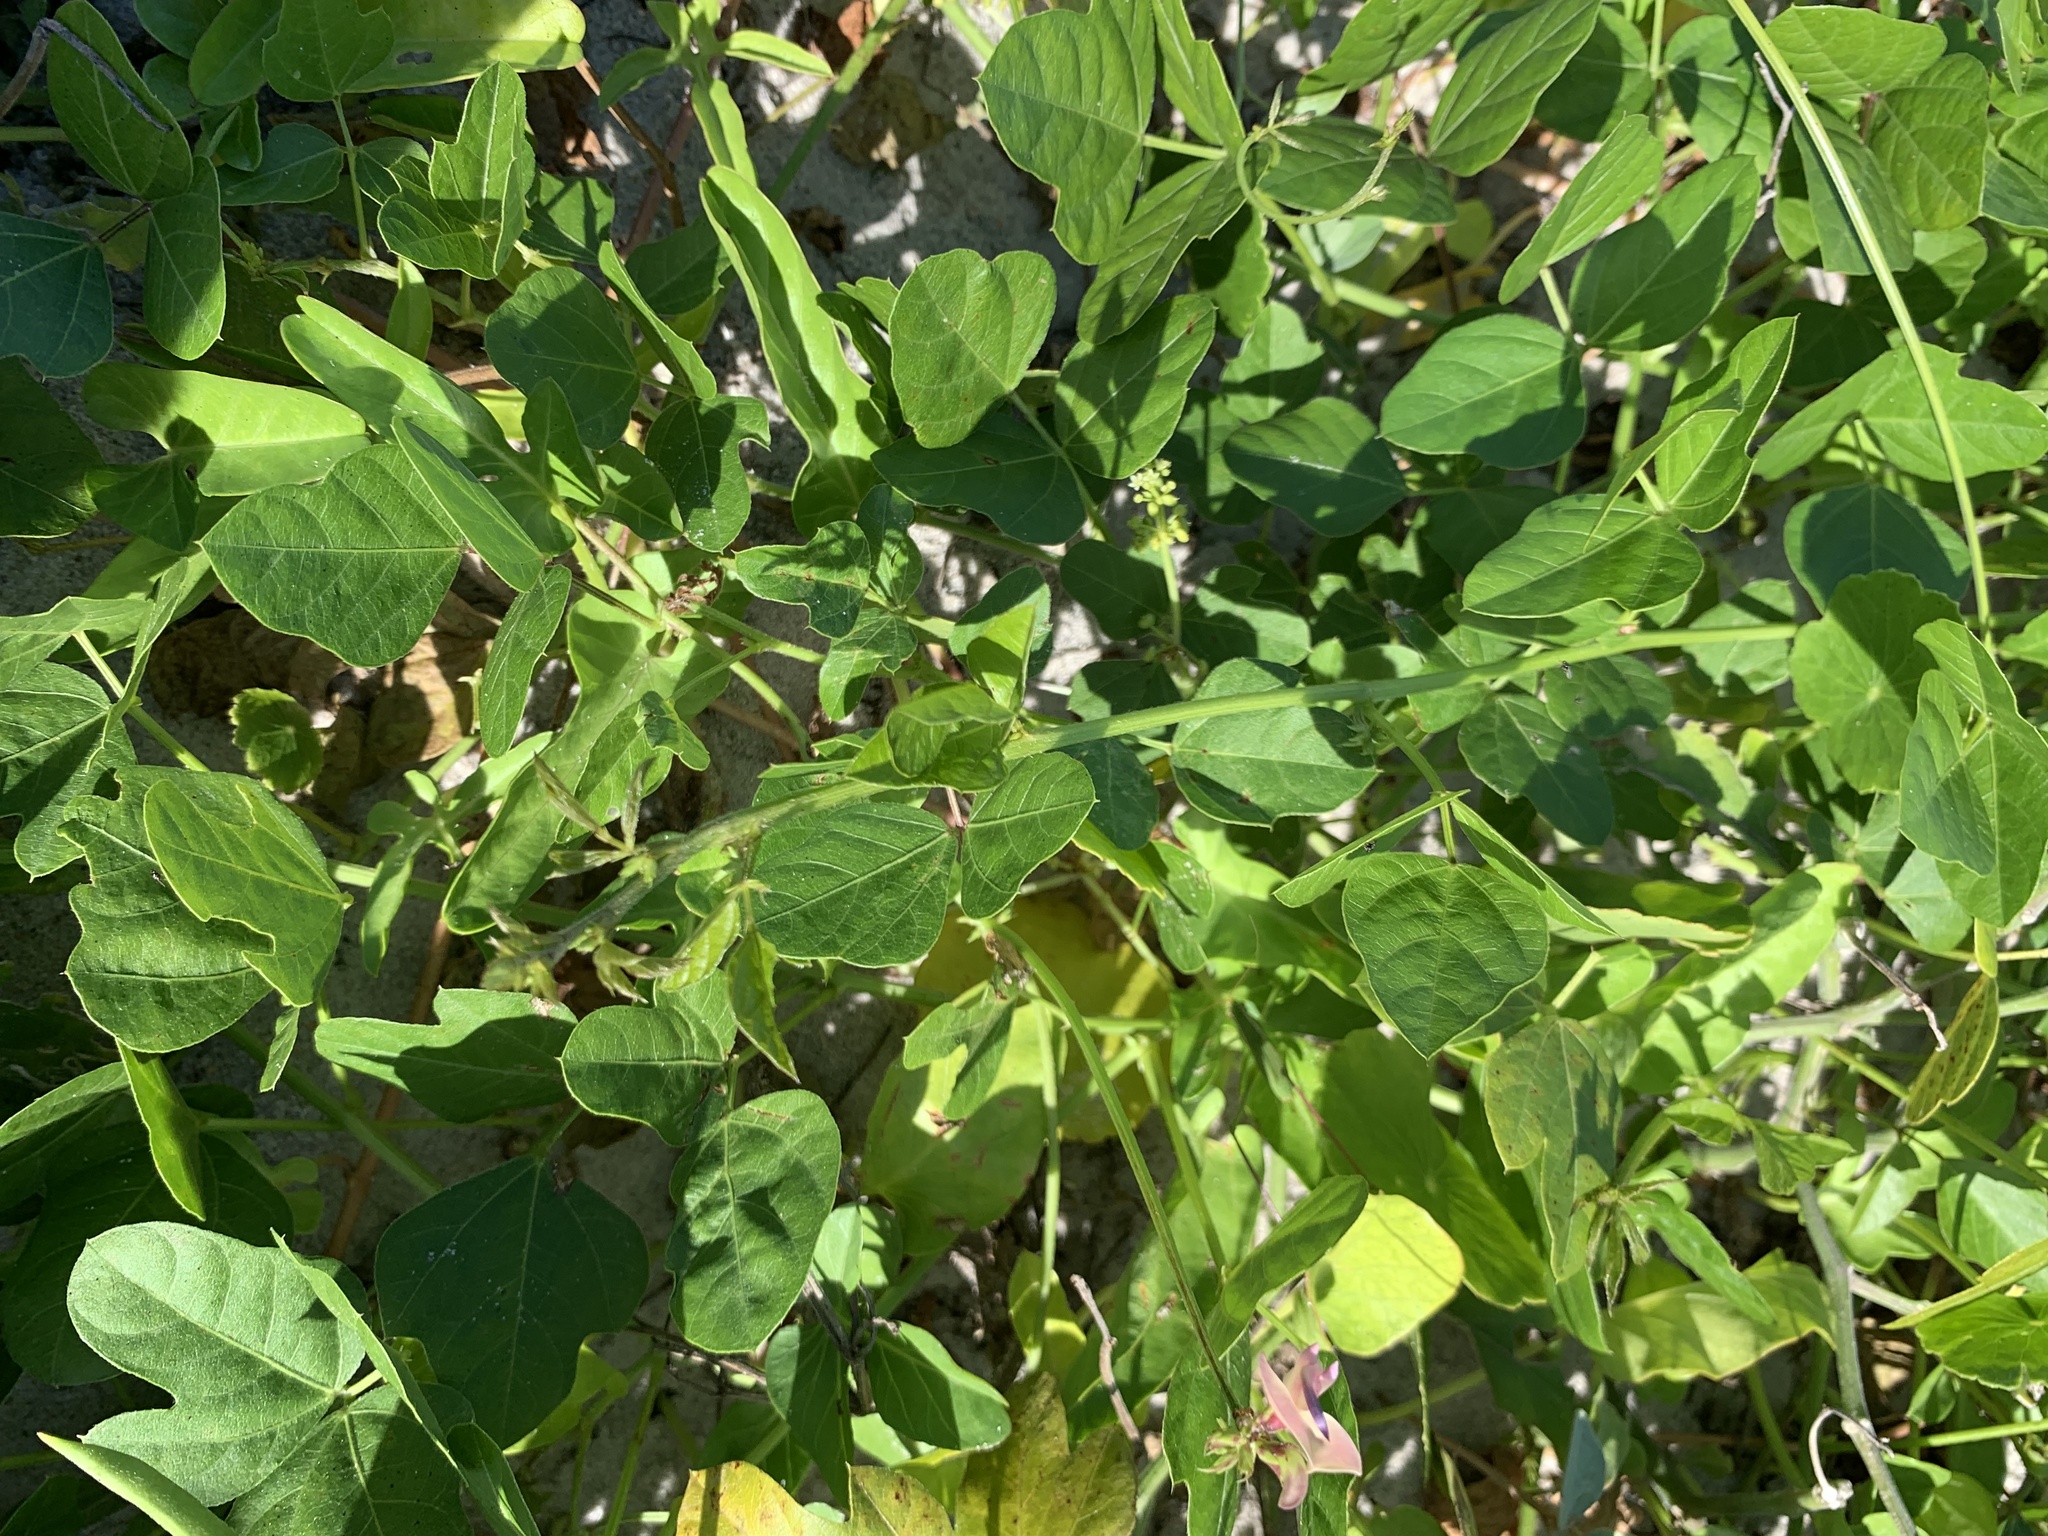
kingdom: Plantae
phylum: Tracheophyta
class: Magnoliopsida
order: Fabales
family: Fabaceae
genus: Strophostyles
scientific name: Strophostyles helvola
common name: Trailing wild bean
